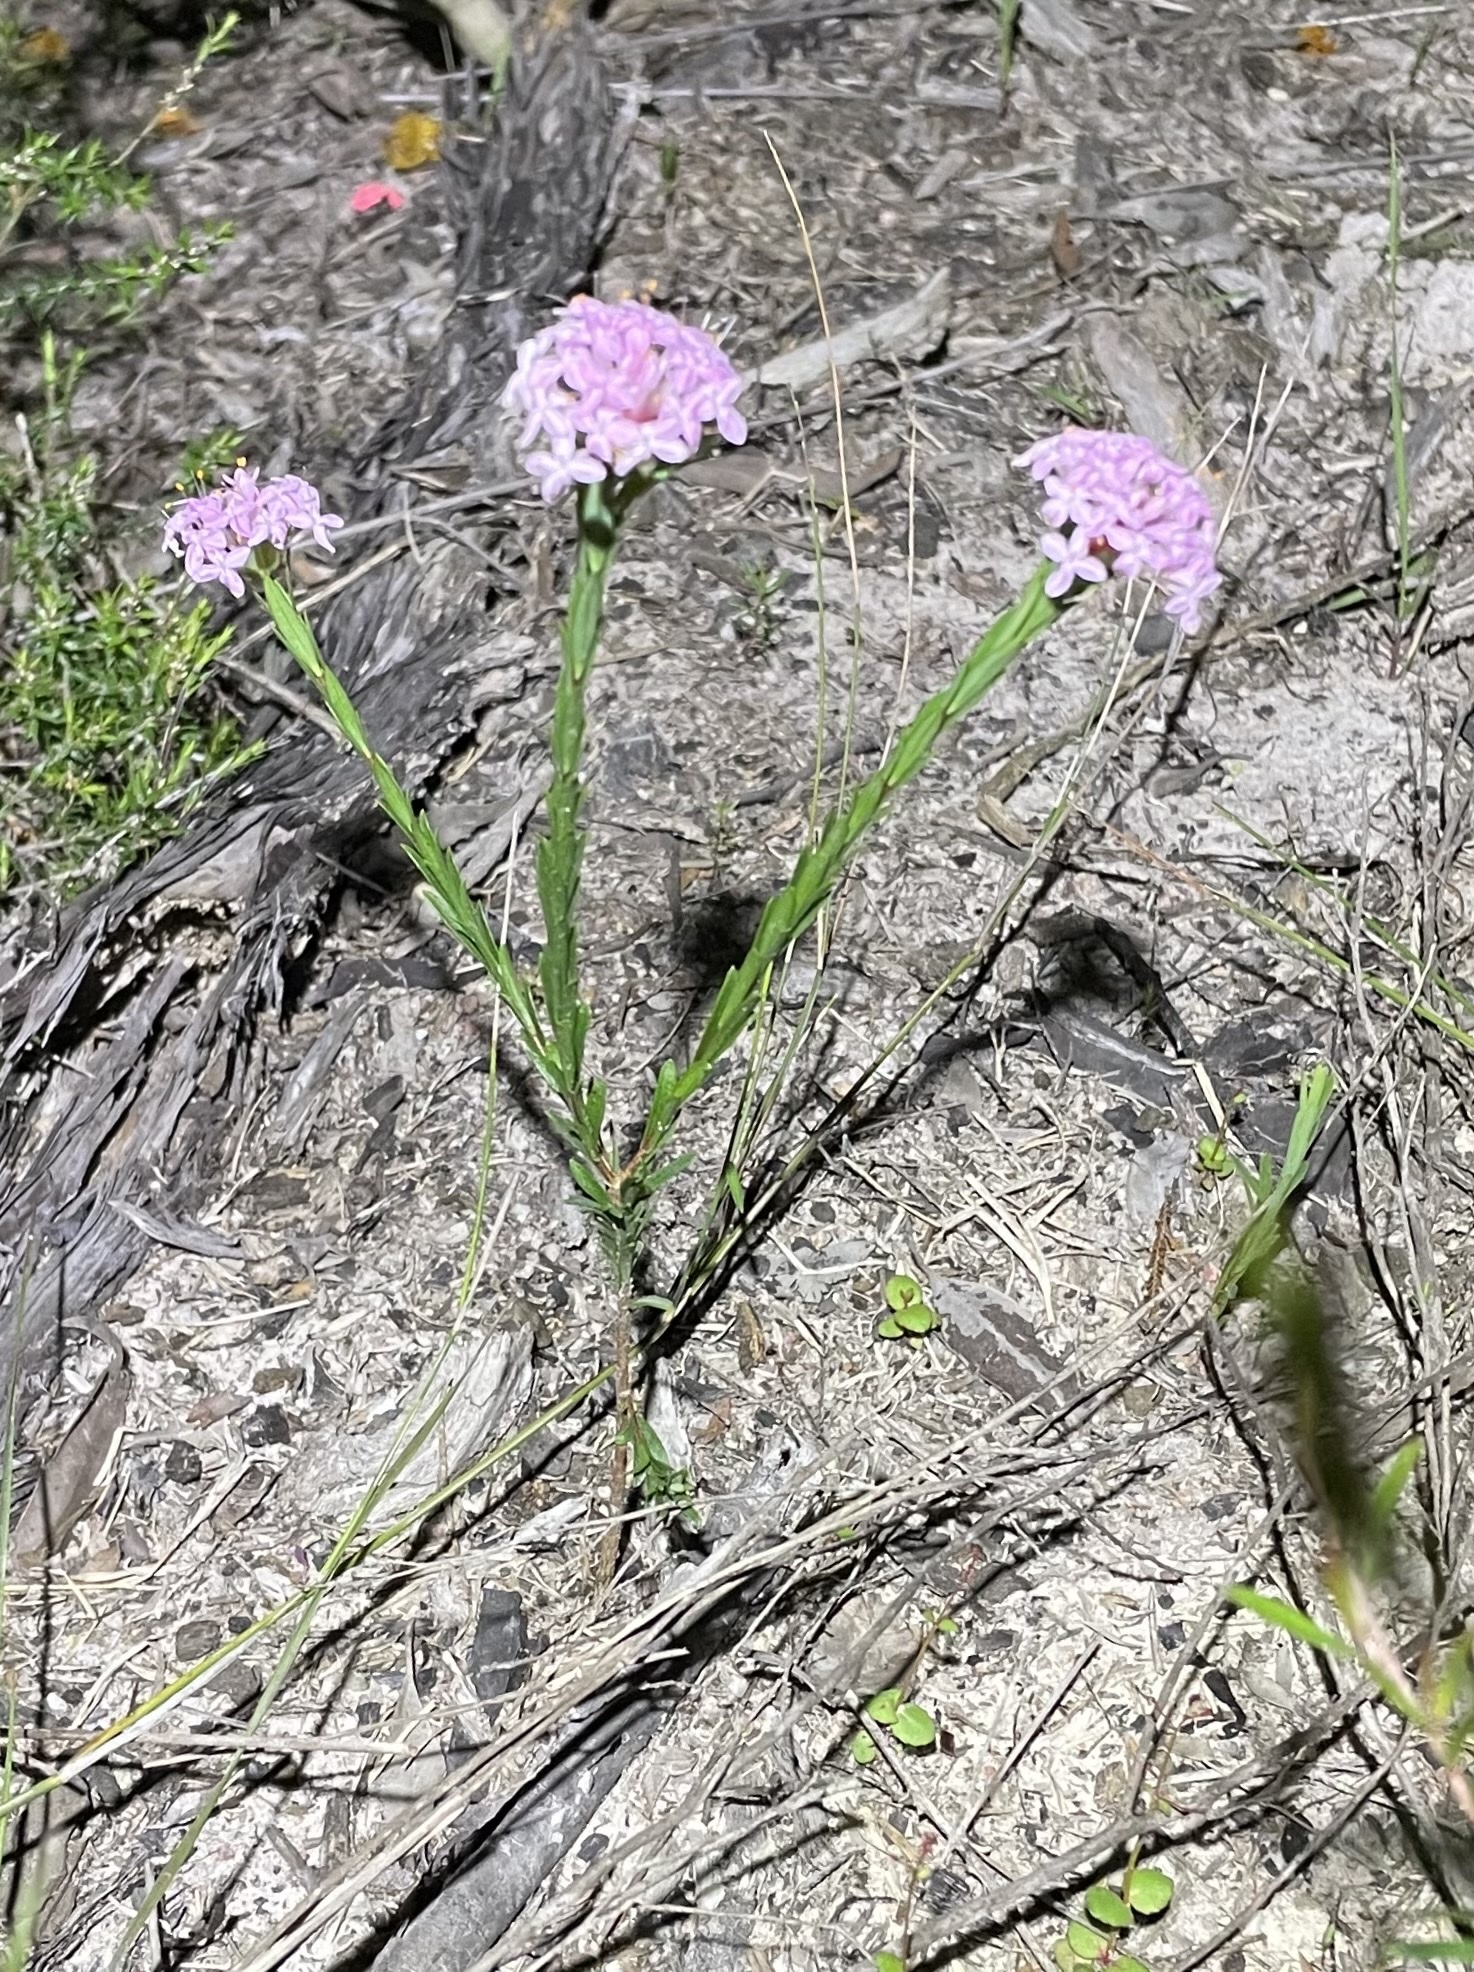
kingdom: Plantae
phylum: Tracheophyta
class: Magnoliopsida
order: Malvales
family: Thymelaeaceae
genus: Pimelea
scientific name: Pimelea linifolia
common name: Queen-of-the-bush
